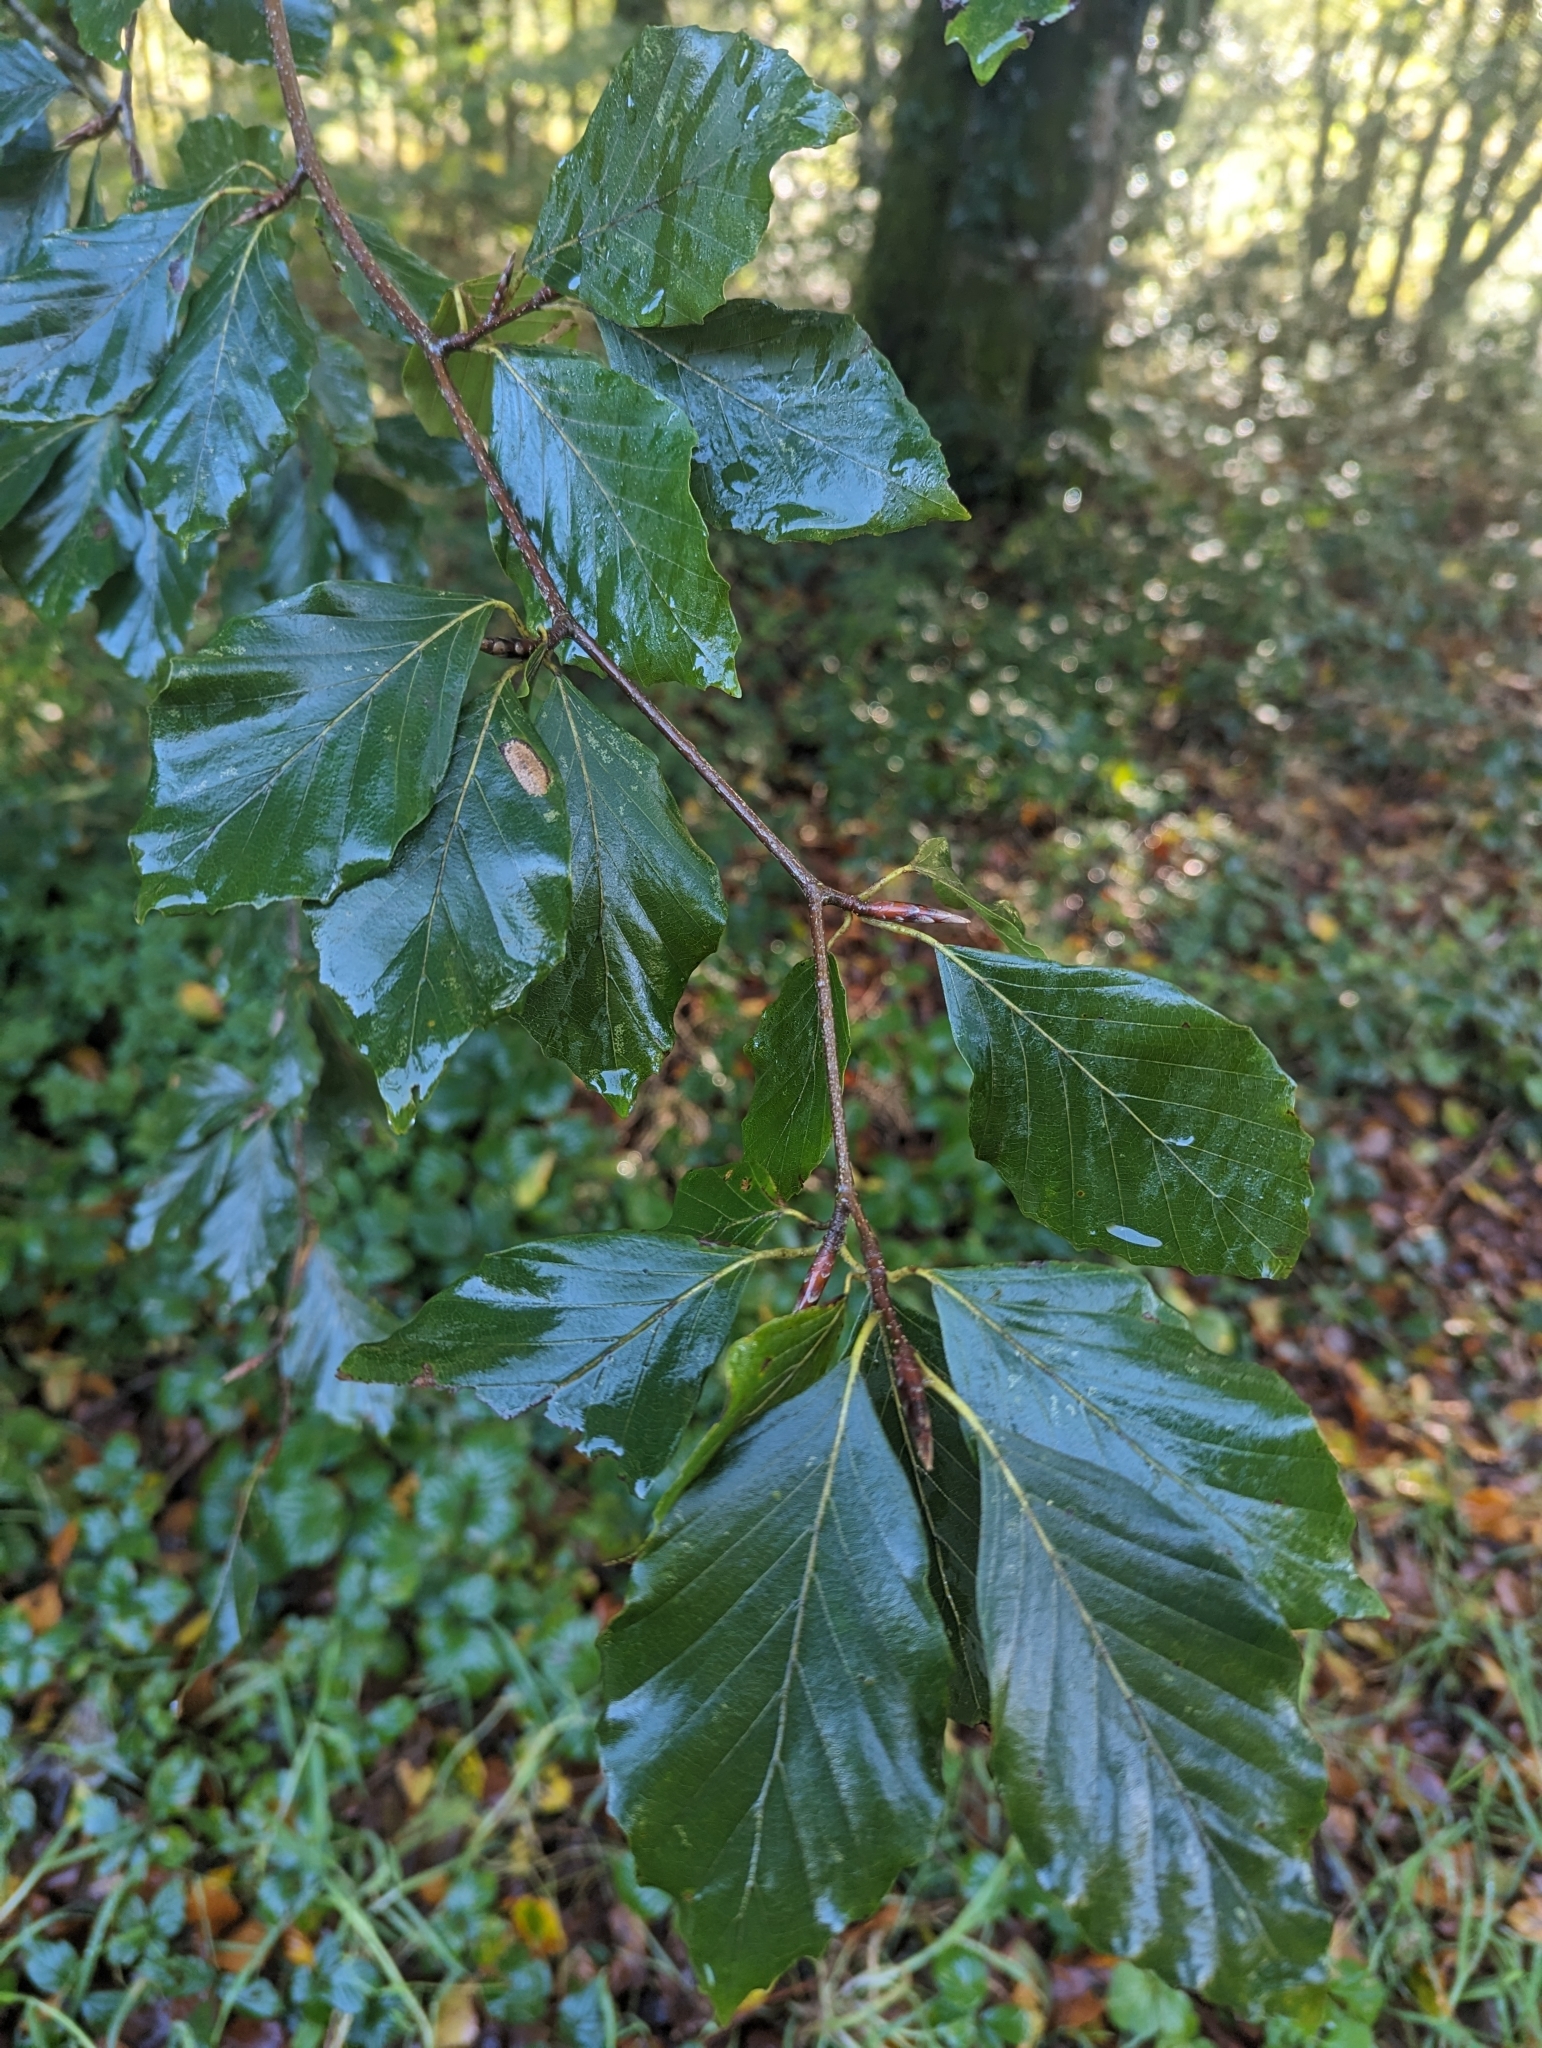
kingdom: Plantae
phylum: Tracheophyta
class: Magnoliopsida
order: Fagales
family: Fagaceae
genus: Fagus
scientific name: Fagus sylvatica
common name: Beech
